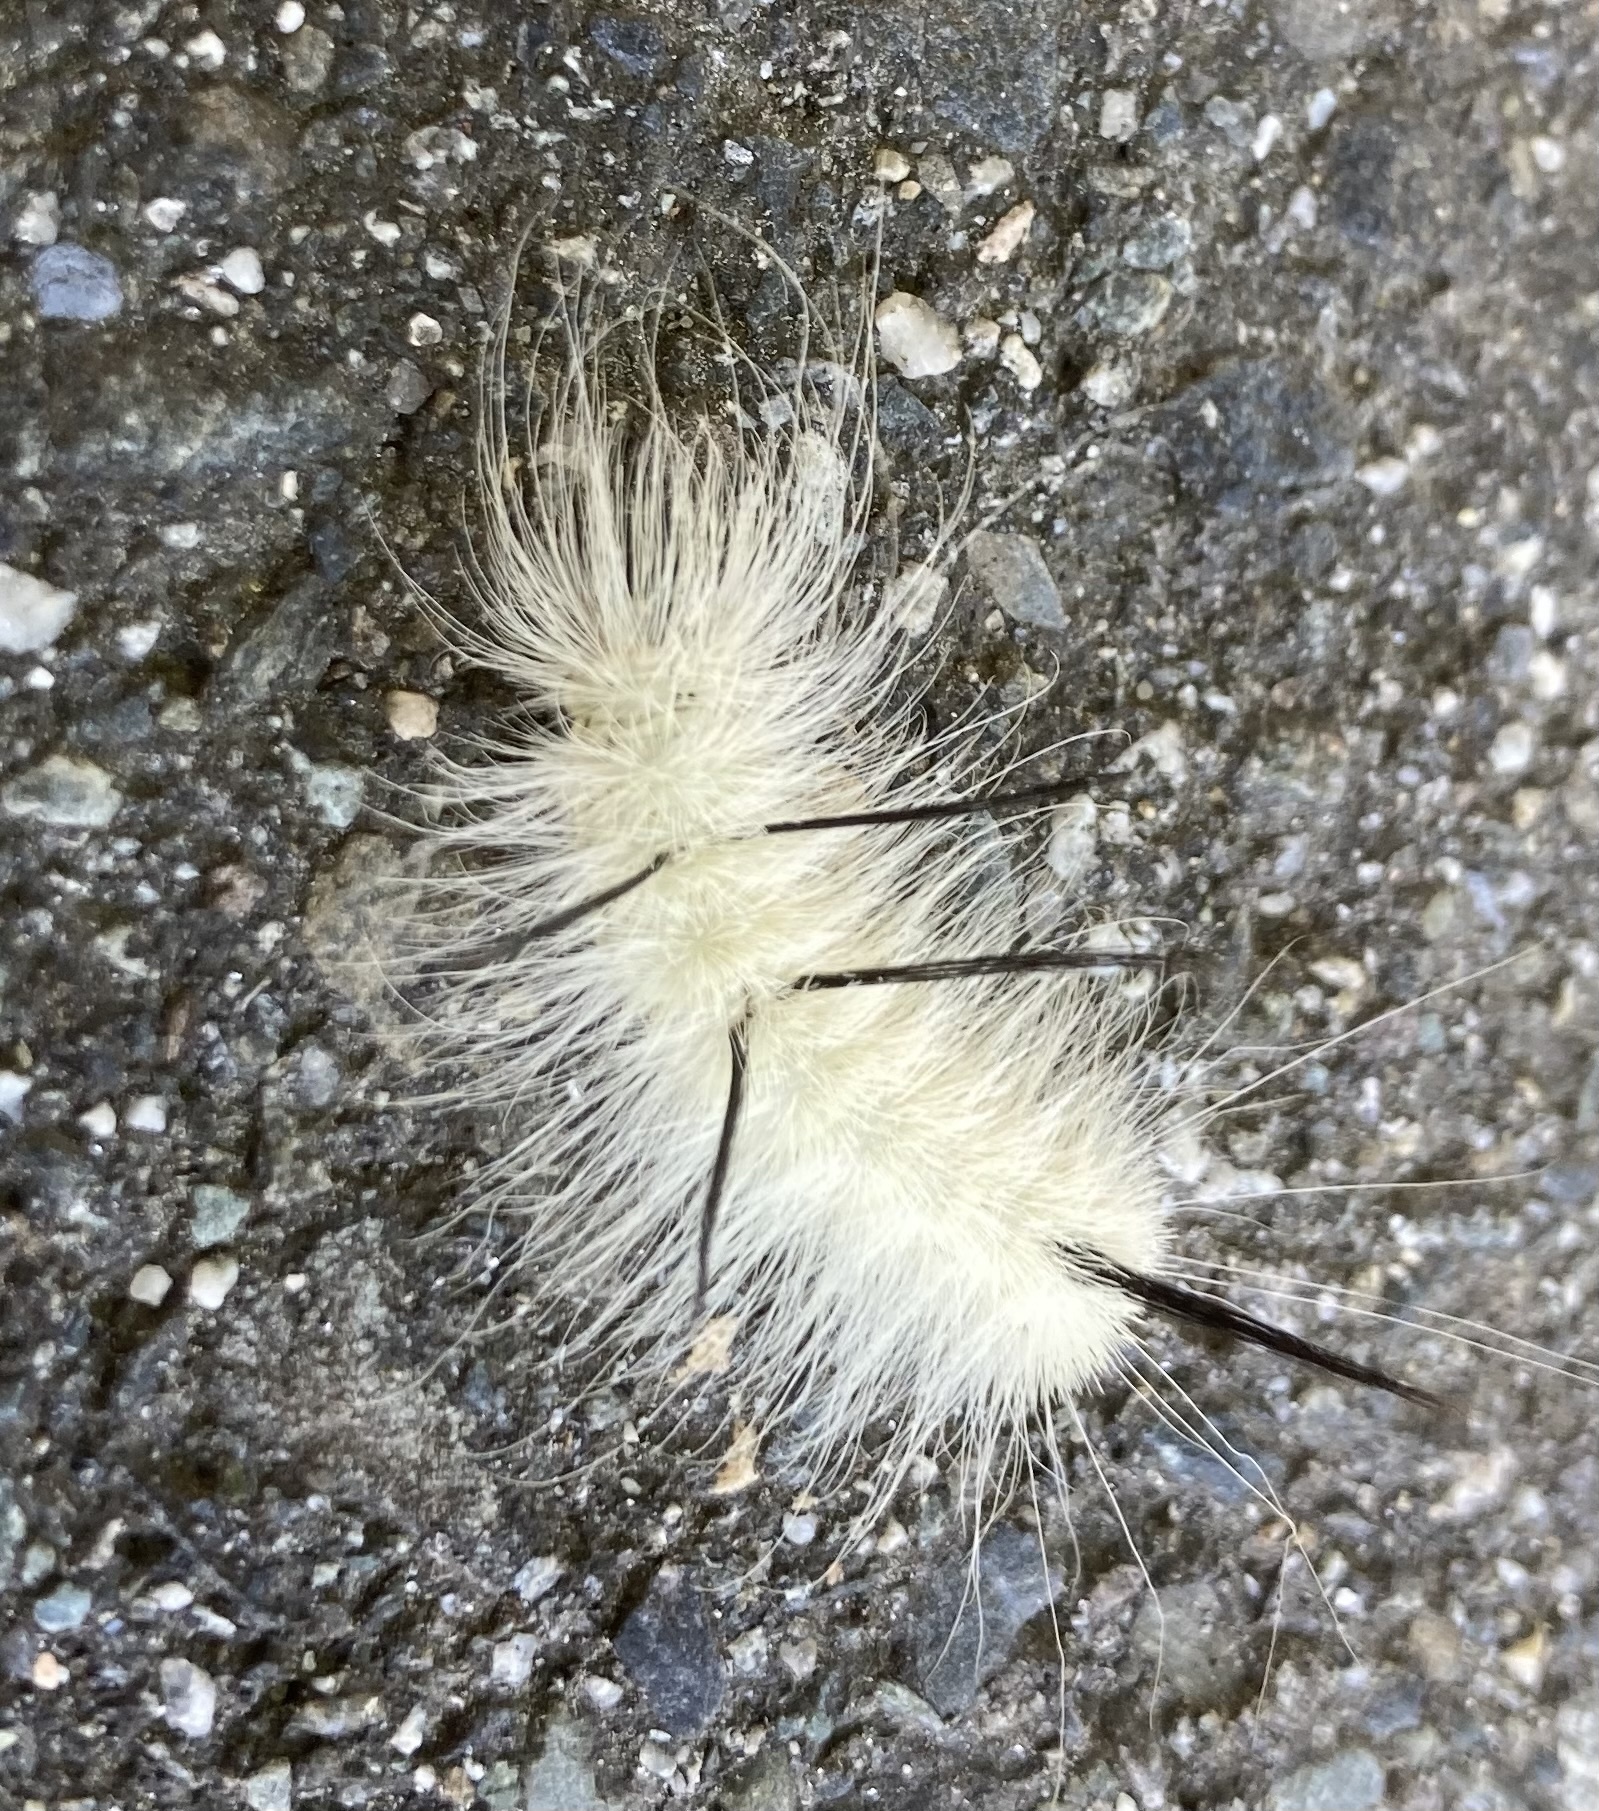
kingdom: Animalia
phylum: Arthropoda
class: Insecta
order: Lepidoptera
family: Noctuidae
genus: Acronicta
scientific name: Acronicta americana
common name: American dagger
